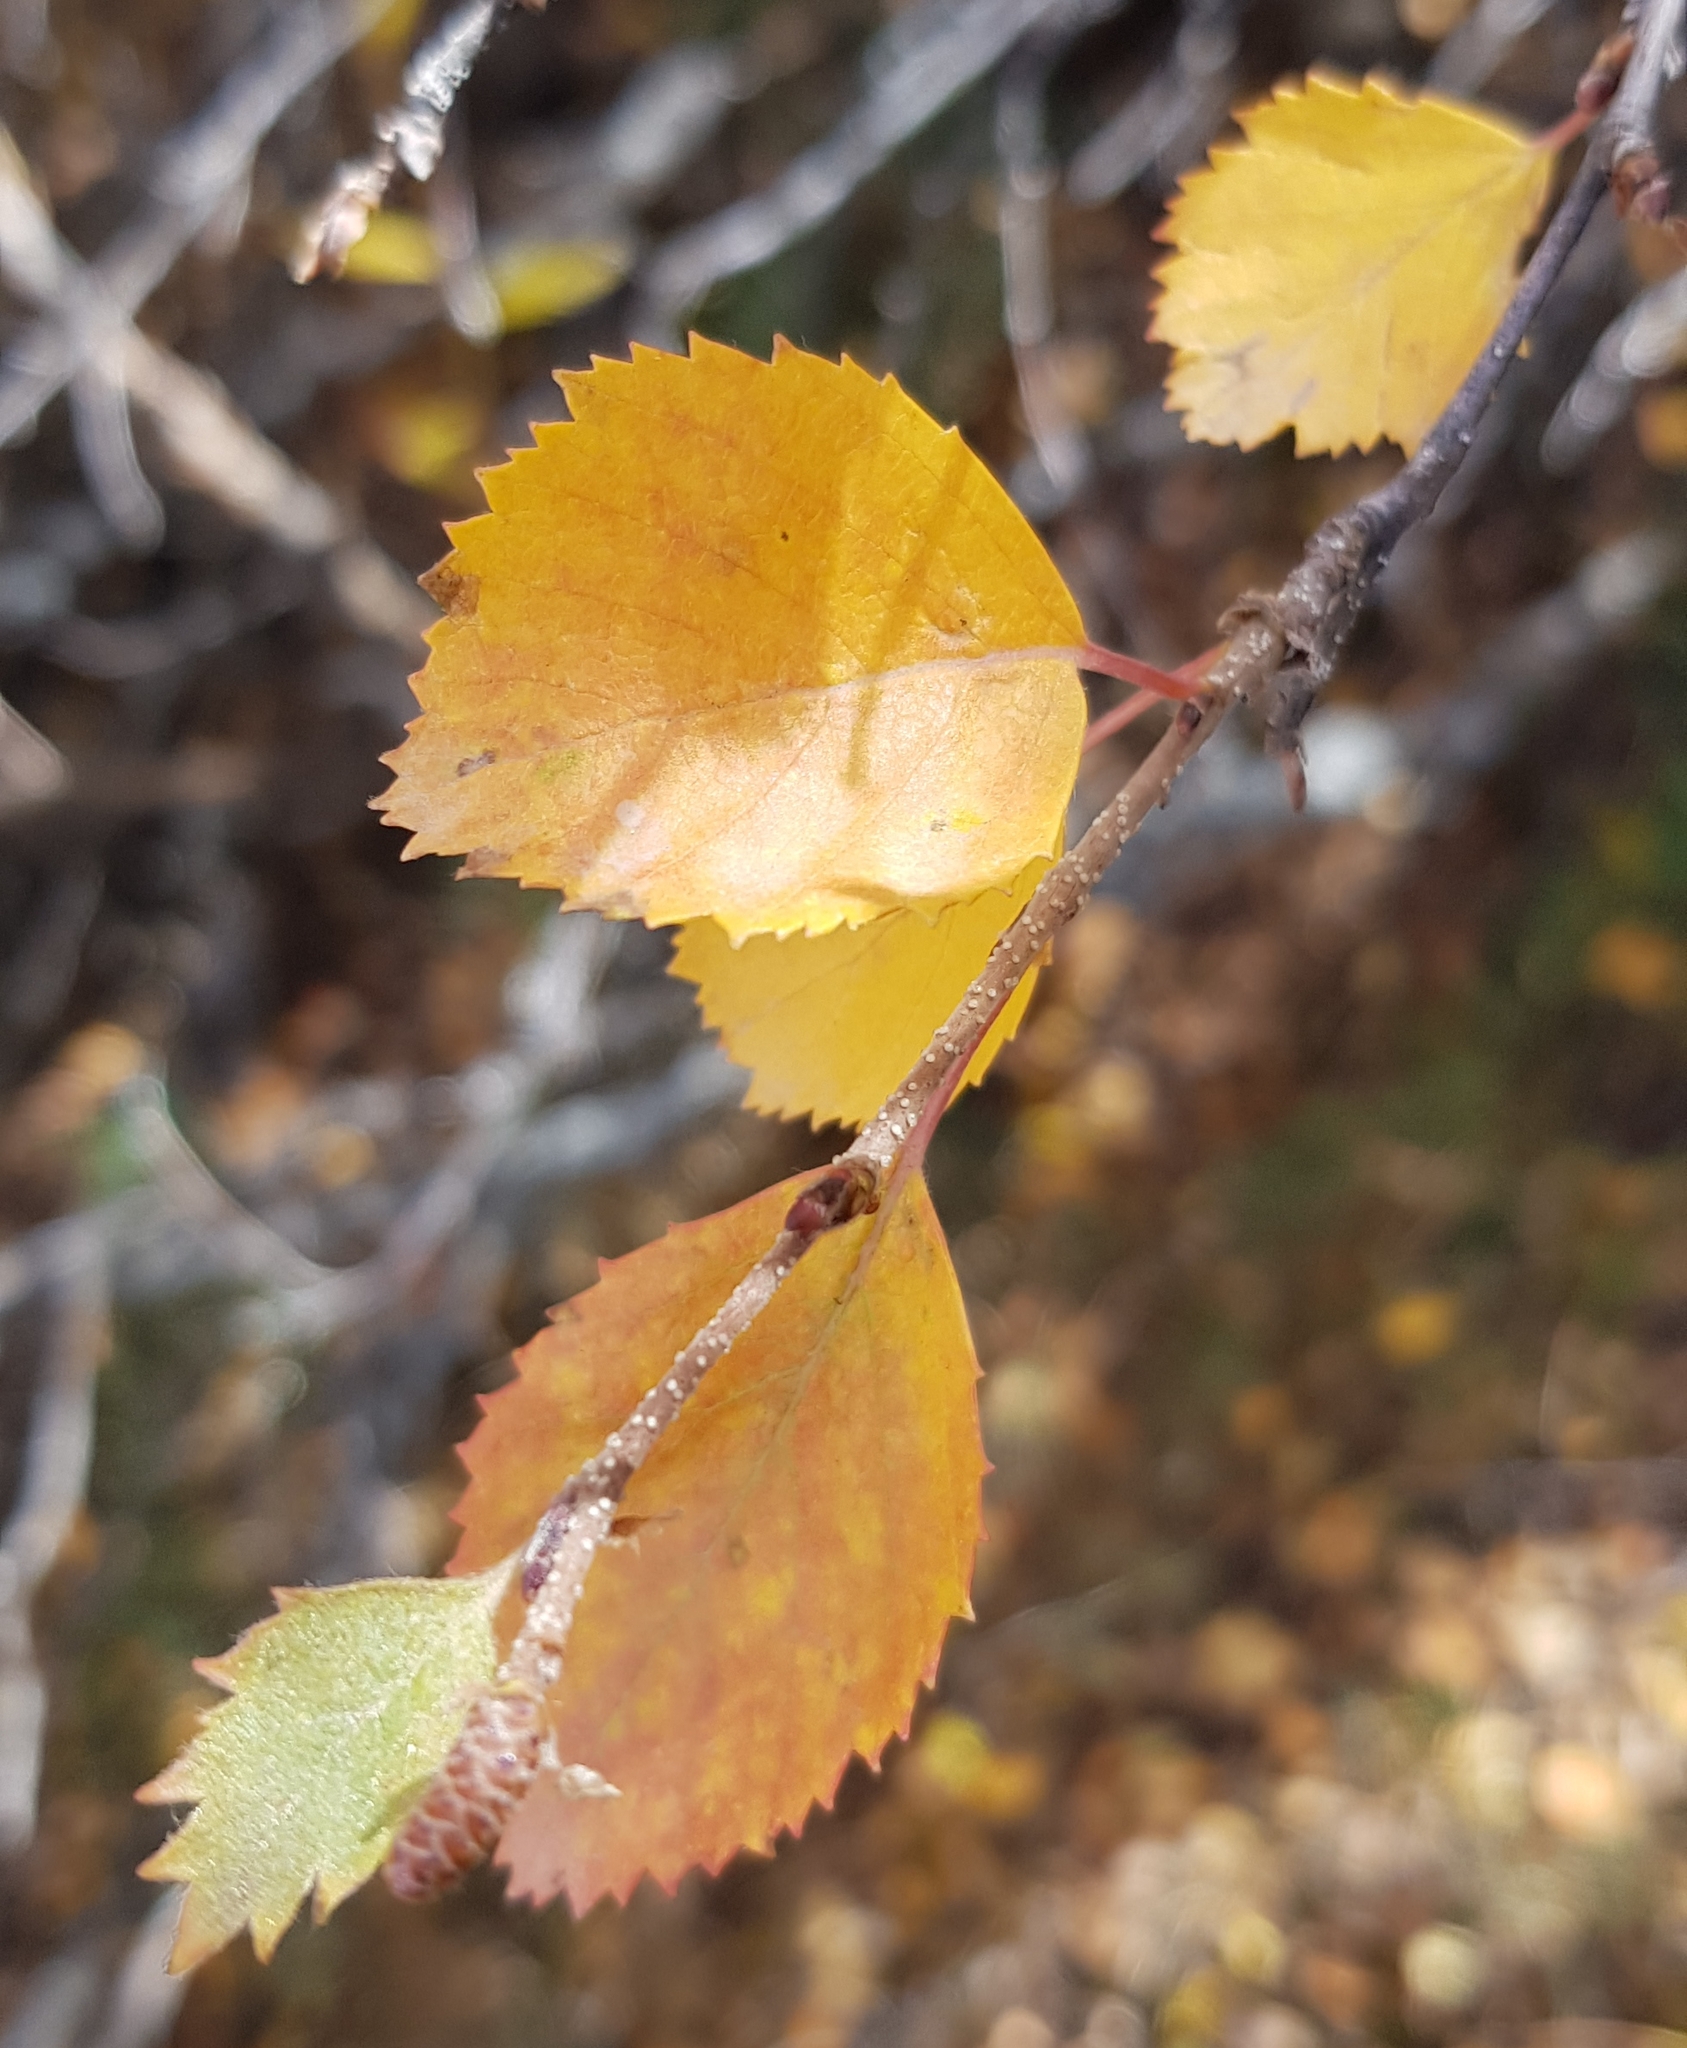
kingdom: Plantae
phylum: Tracheophyta
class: Magnoliopsida
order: Fagales
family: Betulaceae
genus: Betula
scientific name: Betula glandulosa
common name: Dwarf birch
